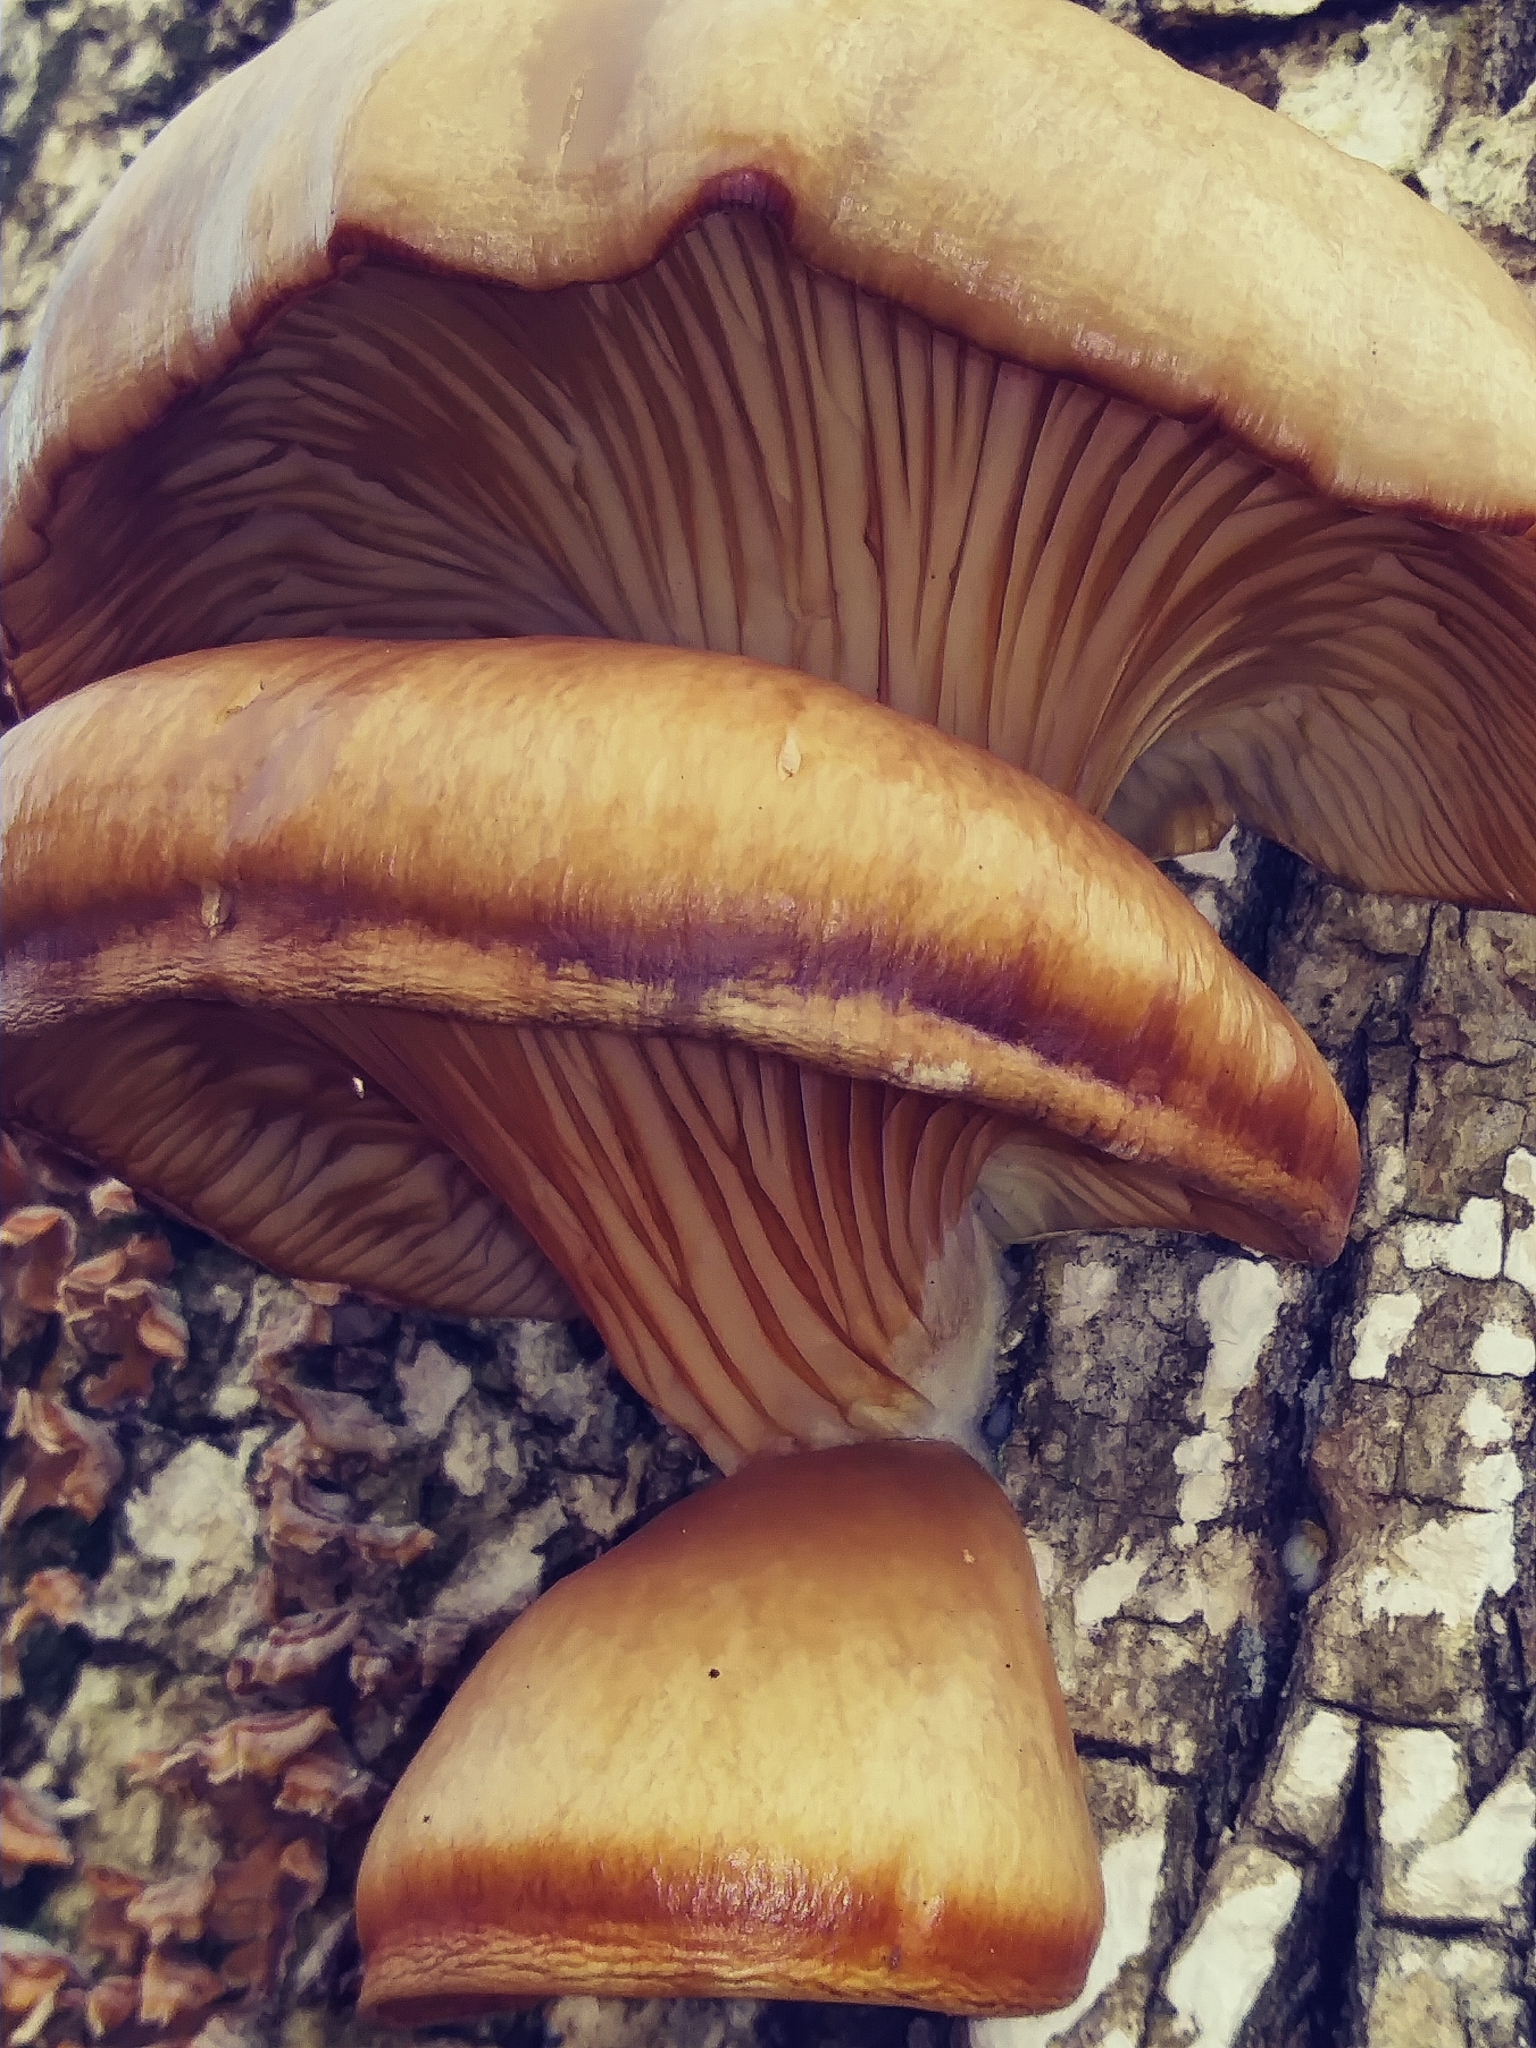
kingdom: Fungi
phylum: Basidiomycota
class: Agaricomycetes
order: Agaricales
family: Pleurotaceae
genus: Pleurotus
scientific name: Pleurotus ostreatus
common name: Oyster mushroom
